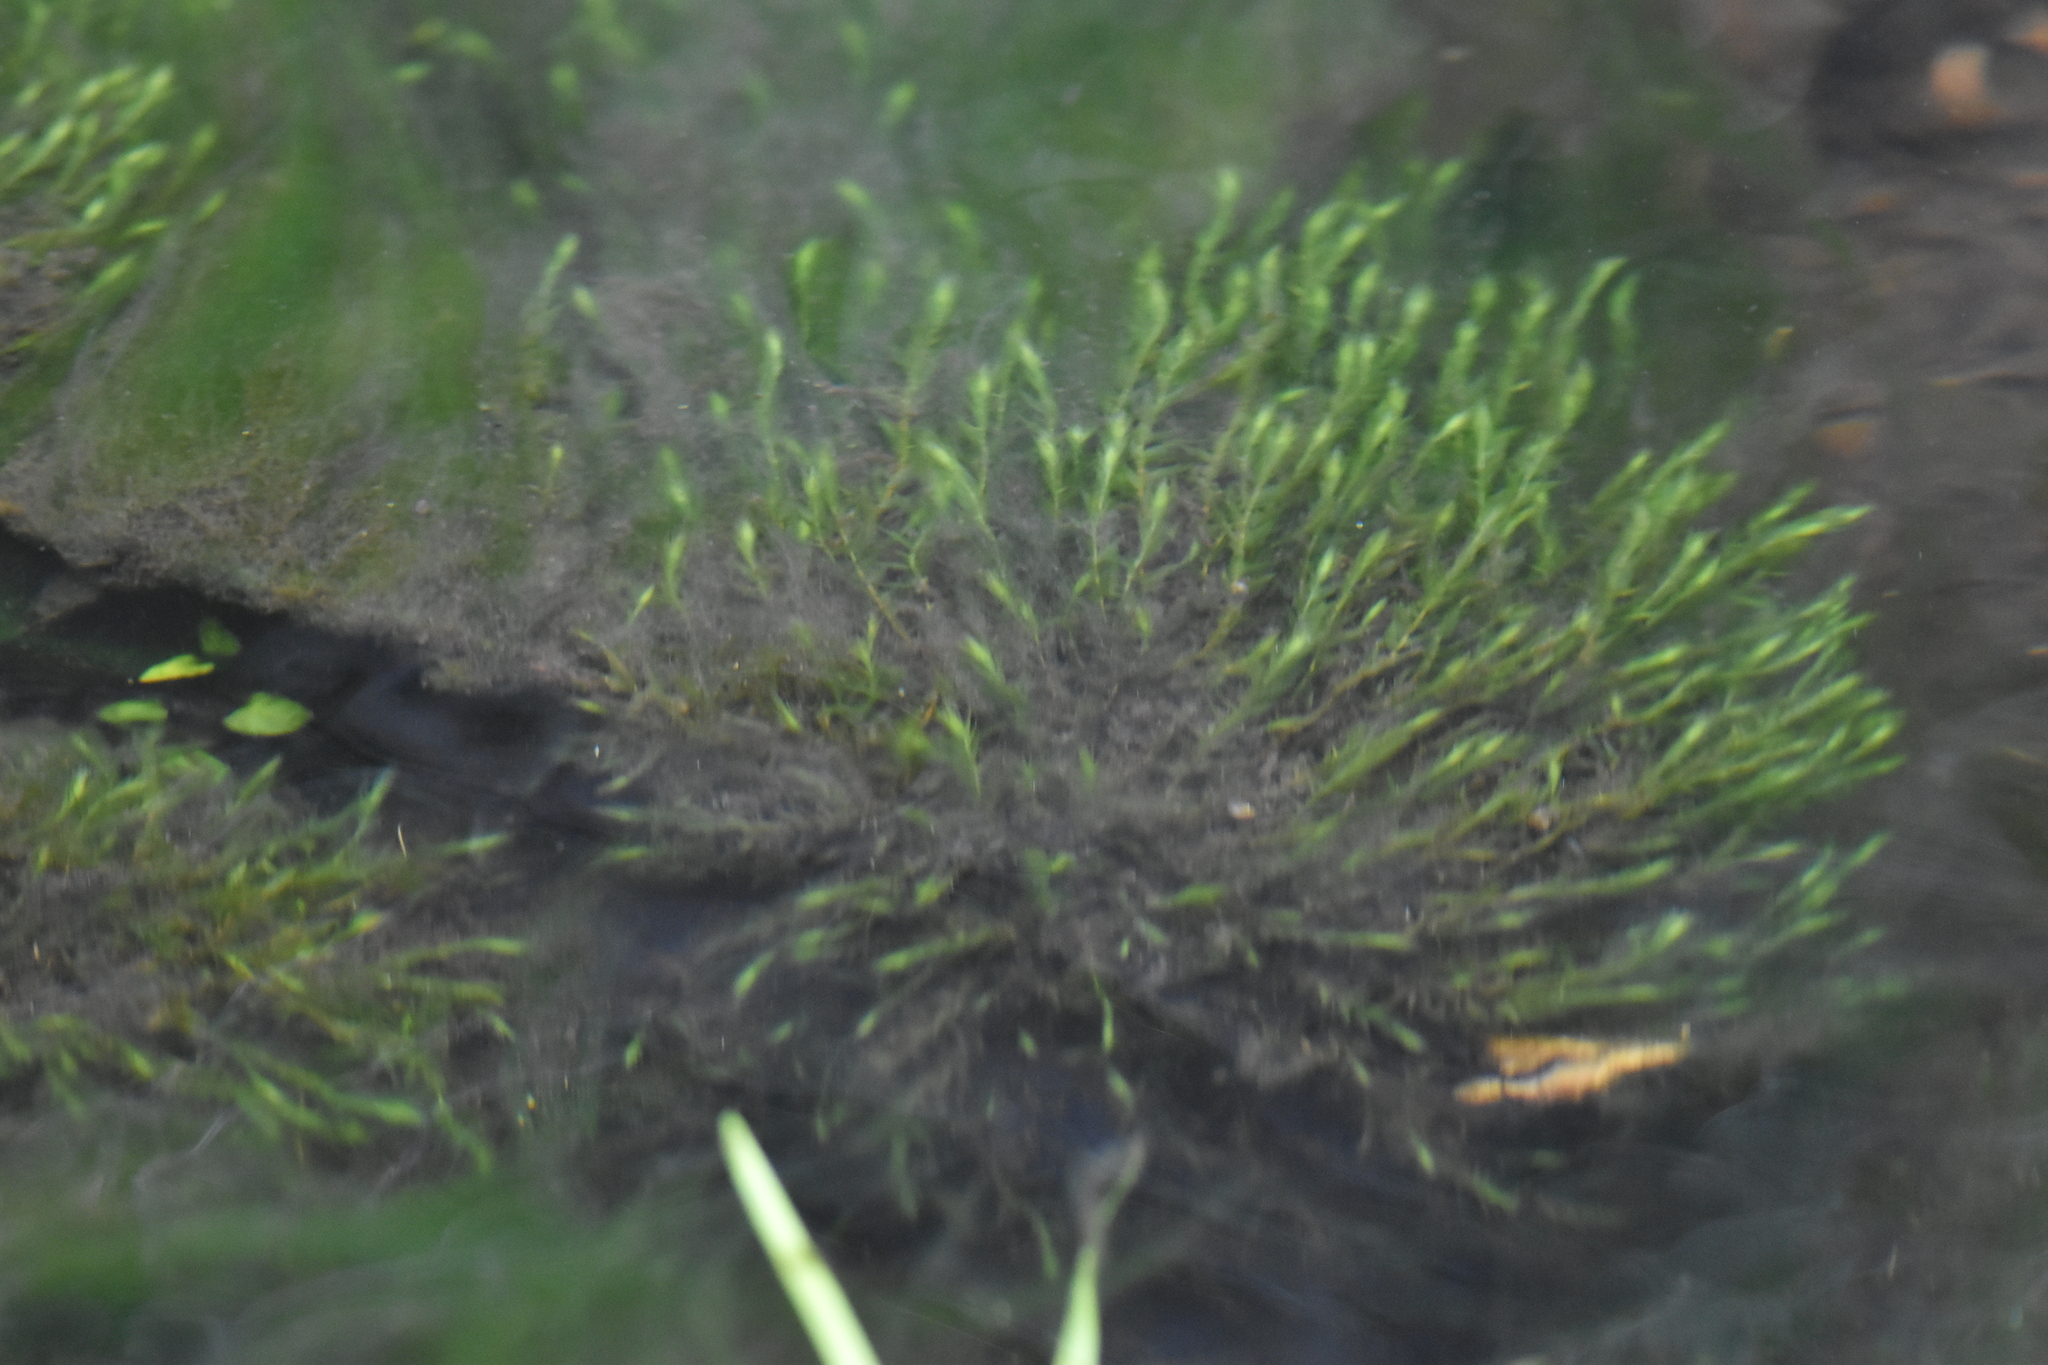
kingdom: Plantae
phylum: Bryophyta
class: Bryopsida
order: Hypnales
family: Amblystegiaceae
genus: Leptodictyum
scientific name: Leptodictyum riparium
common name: Riparian feather moss
